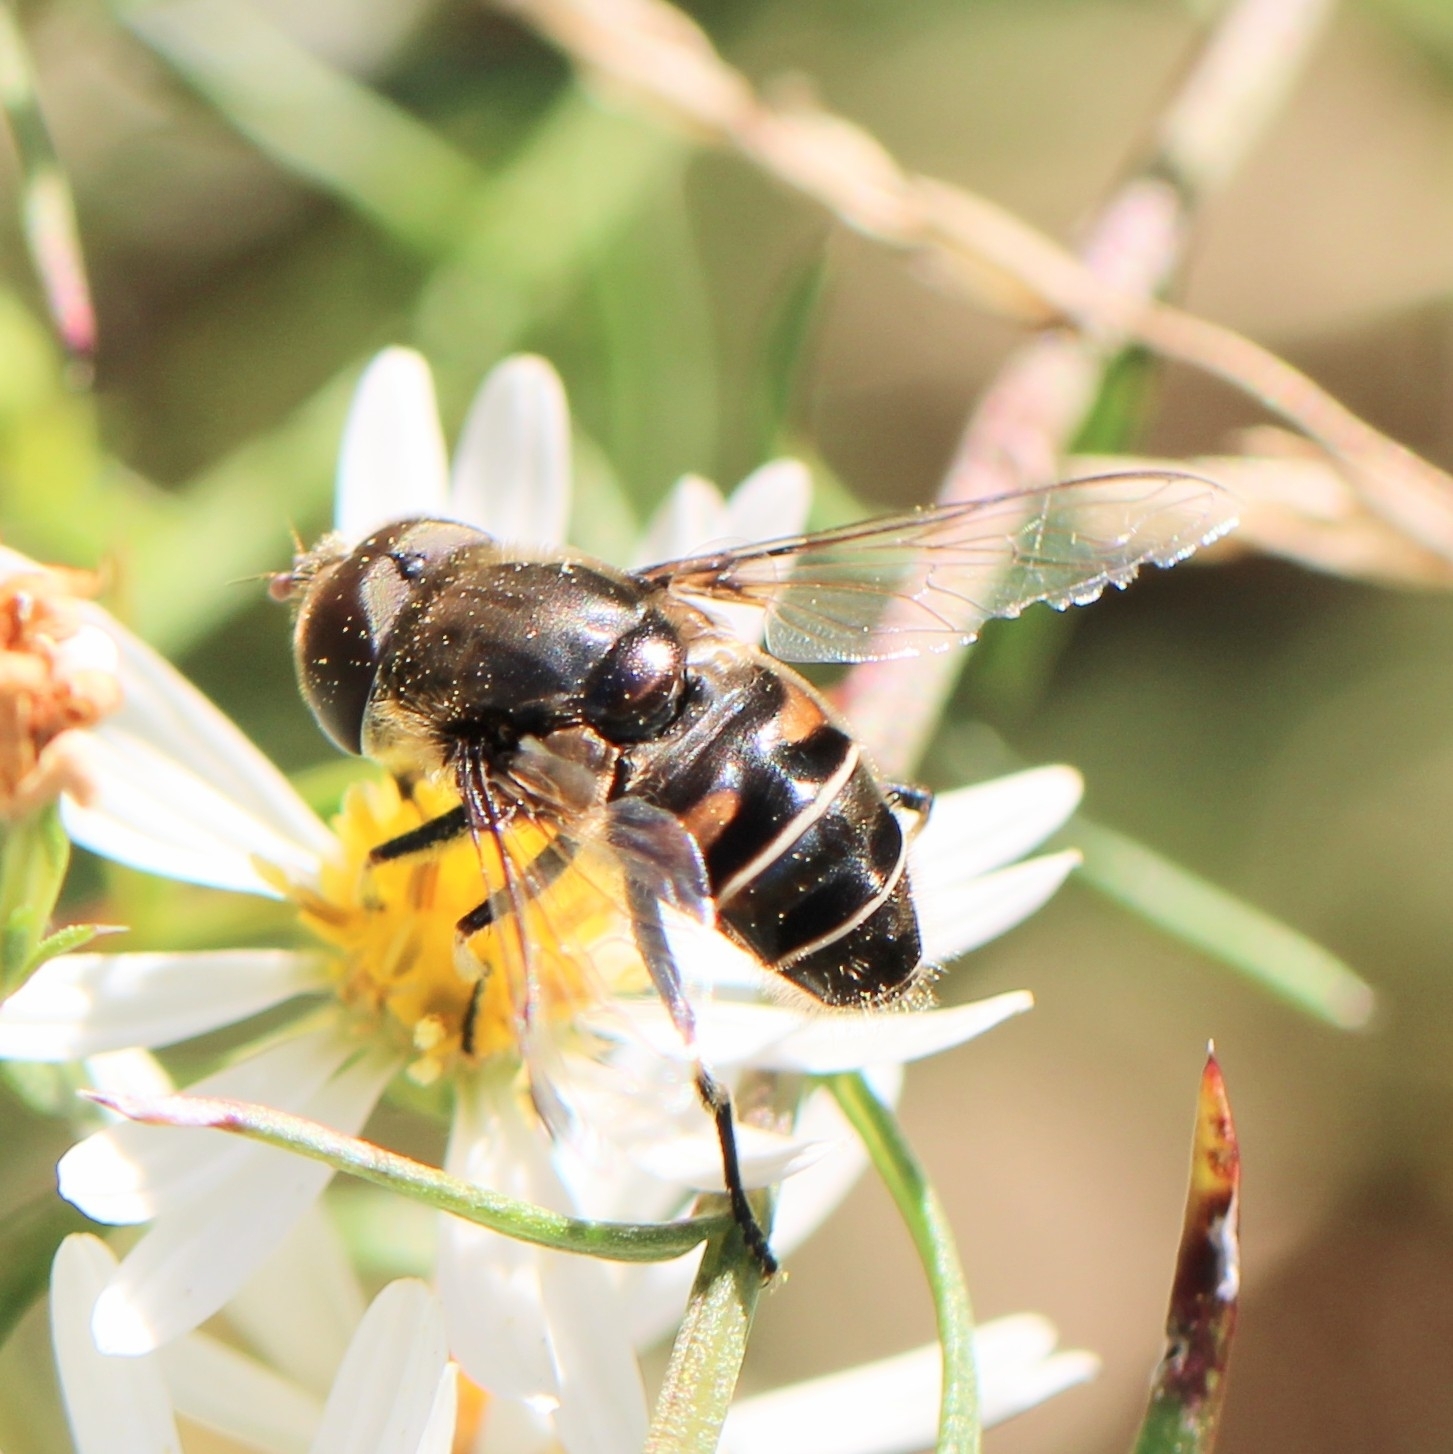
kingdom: Animalia
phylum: Arthropoda
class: Insecta
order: Diptera
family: Syrphidae
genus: Eristalis
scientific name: Eristalis dimidiata
